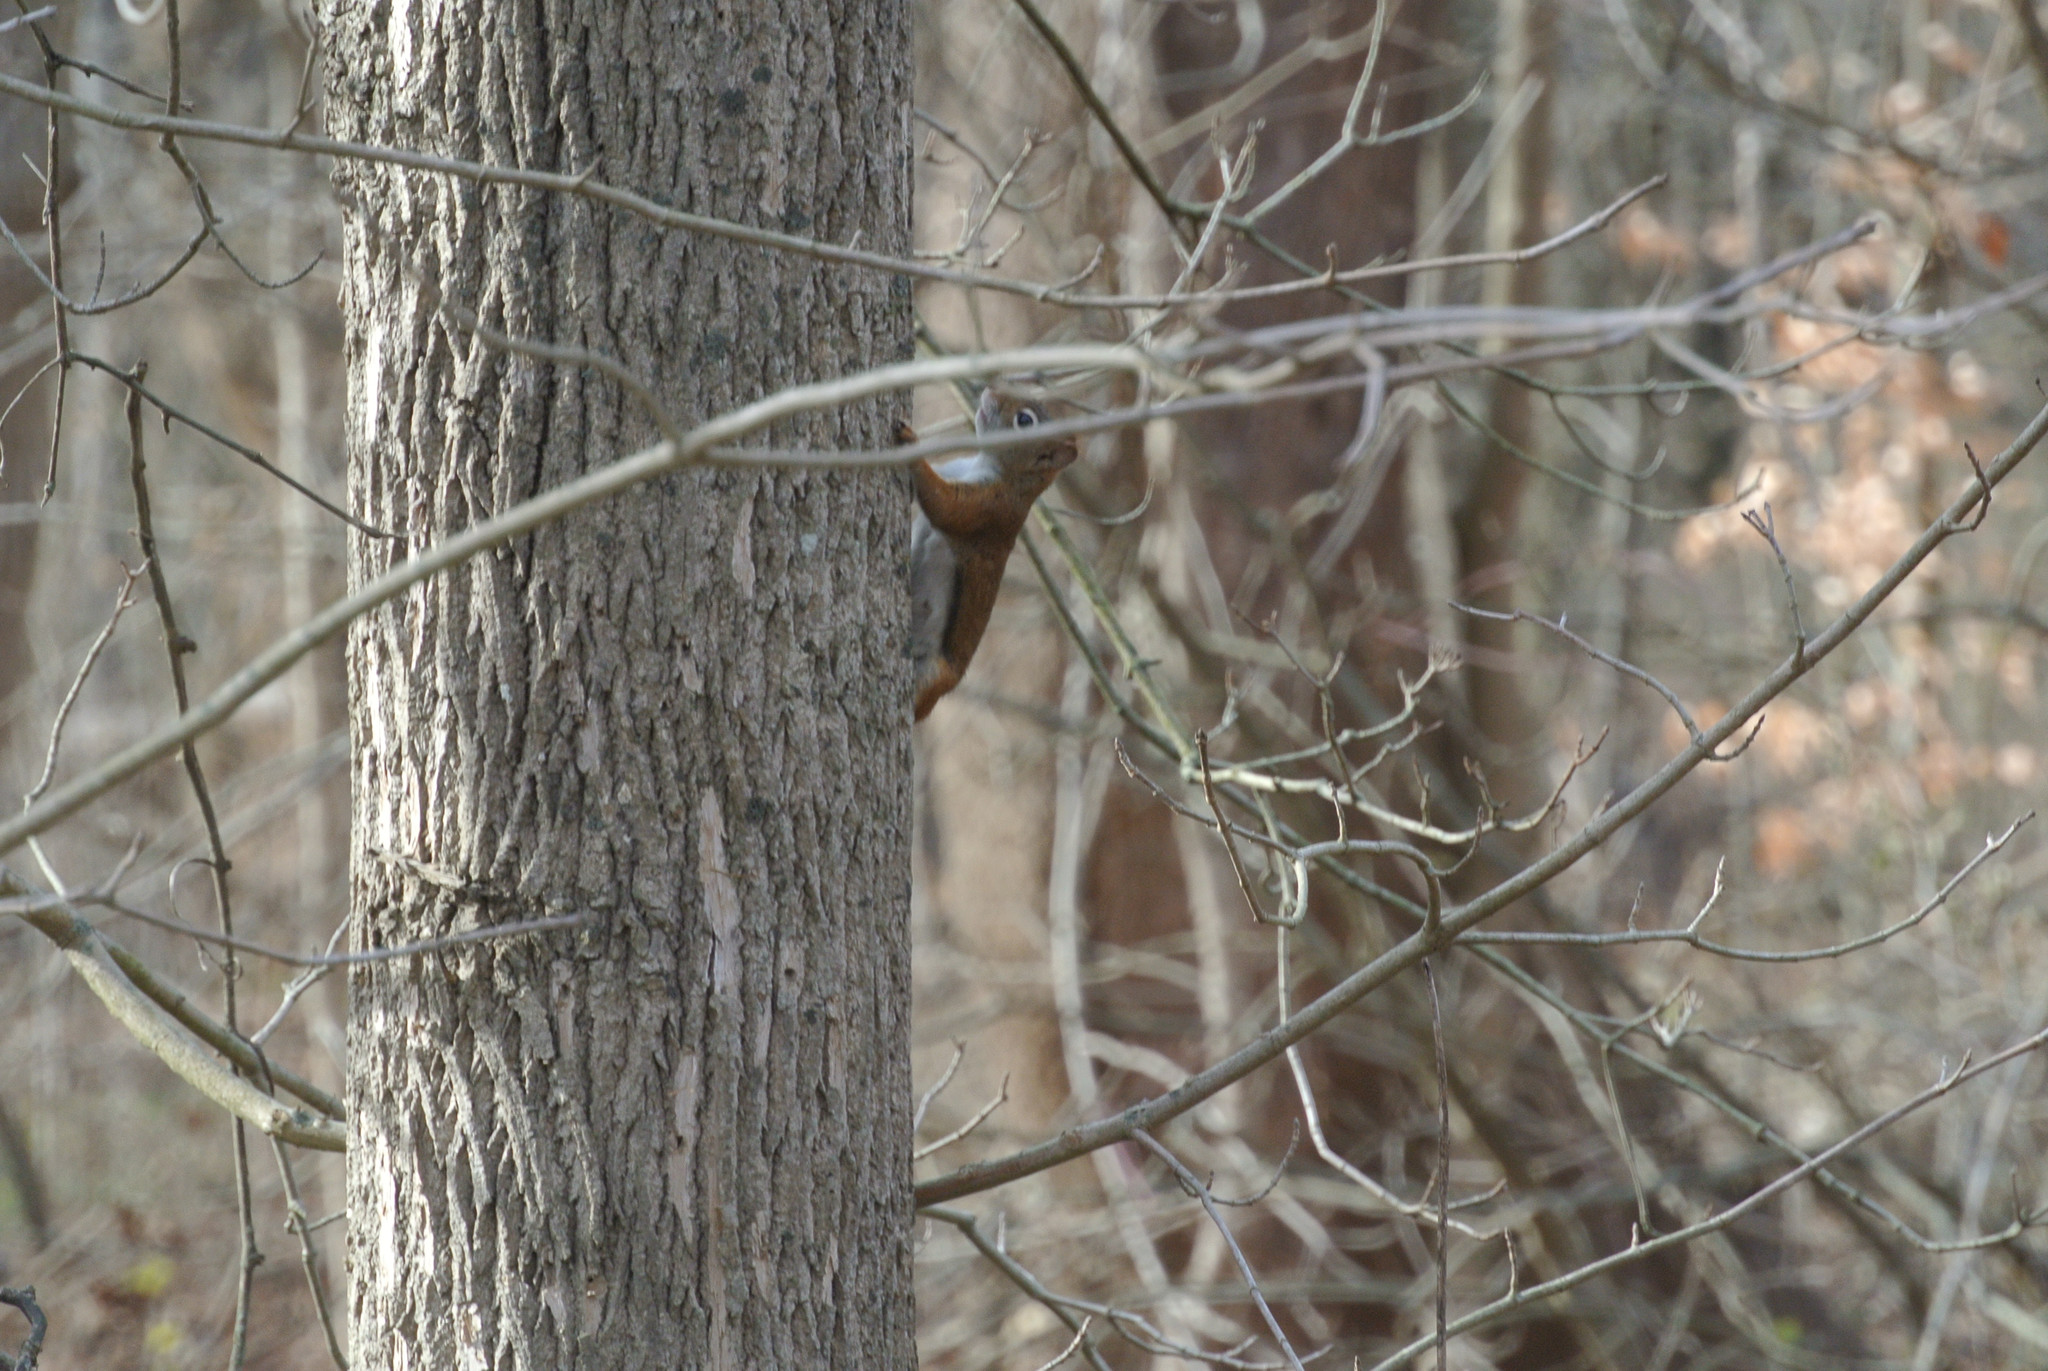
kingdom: Animalia
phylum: Chordata
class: Mammalia
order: Rodentia
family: Sciuridae
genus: Tamiasciurus
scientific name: Tamiasciurus hudsonicus
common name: Red squirrel
